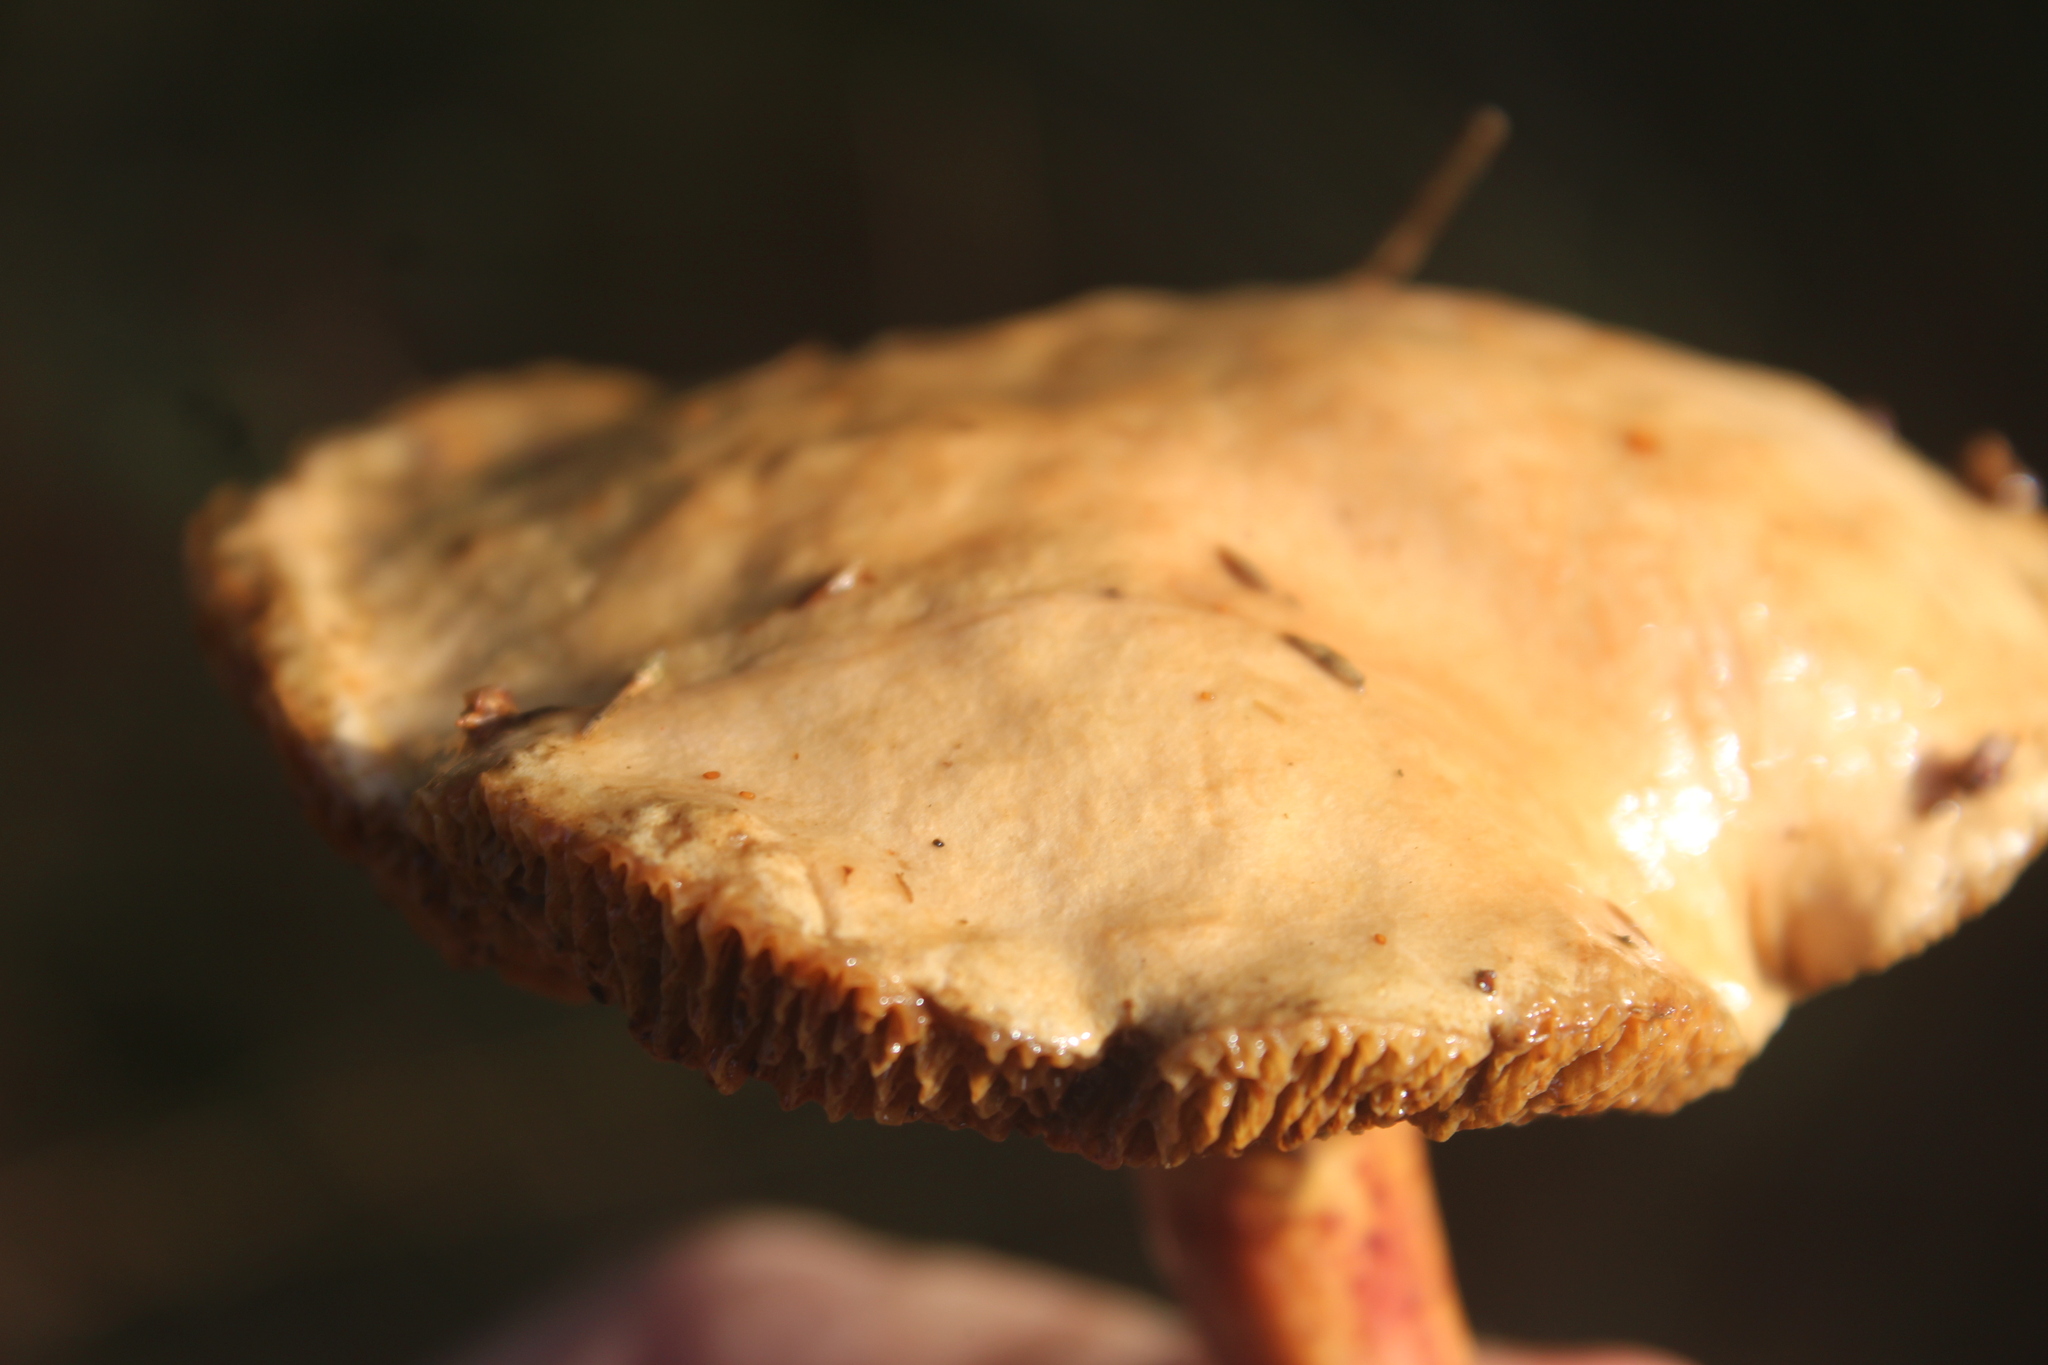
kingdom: Fungi
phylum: Basidiomycota
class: Agaricomycetes
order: Boletales
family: Suillaceae
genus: Suillus
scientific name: Suillus bovinus
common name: Bovine bolete
